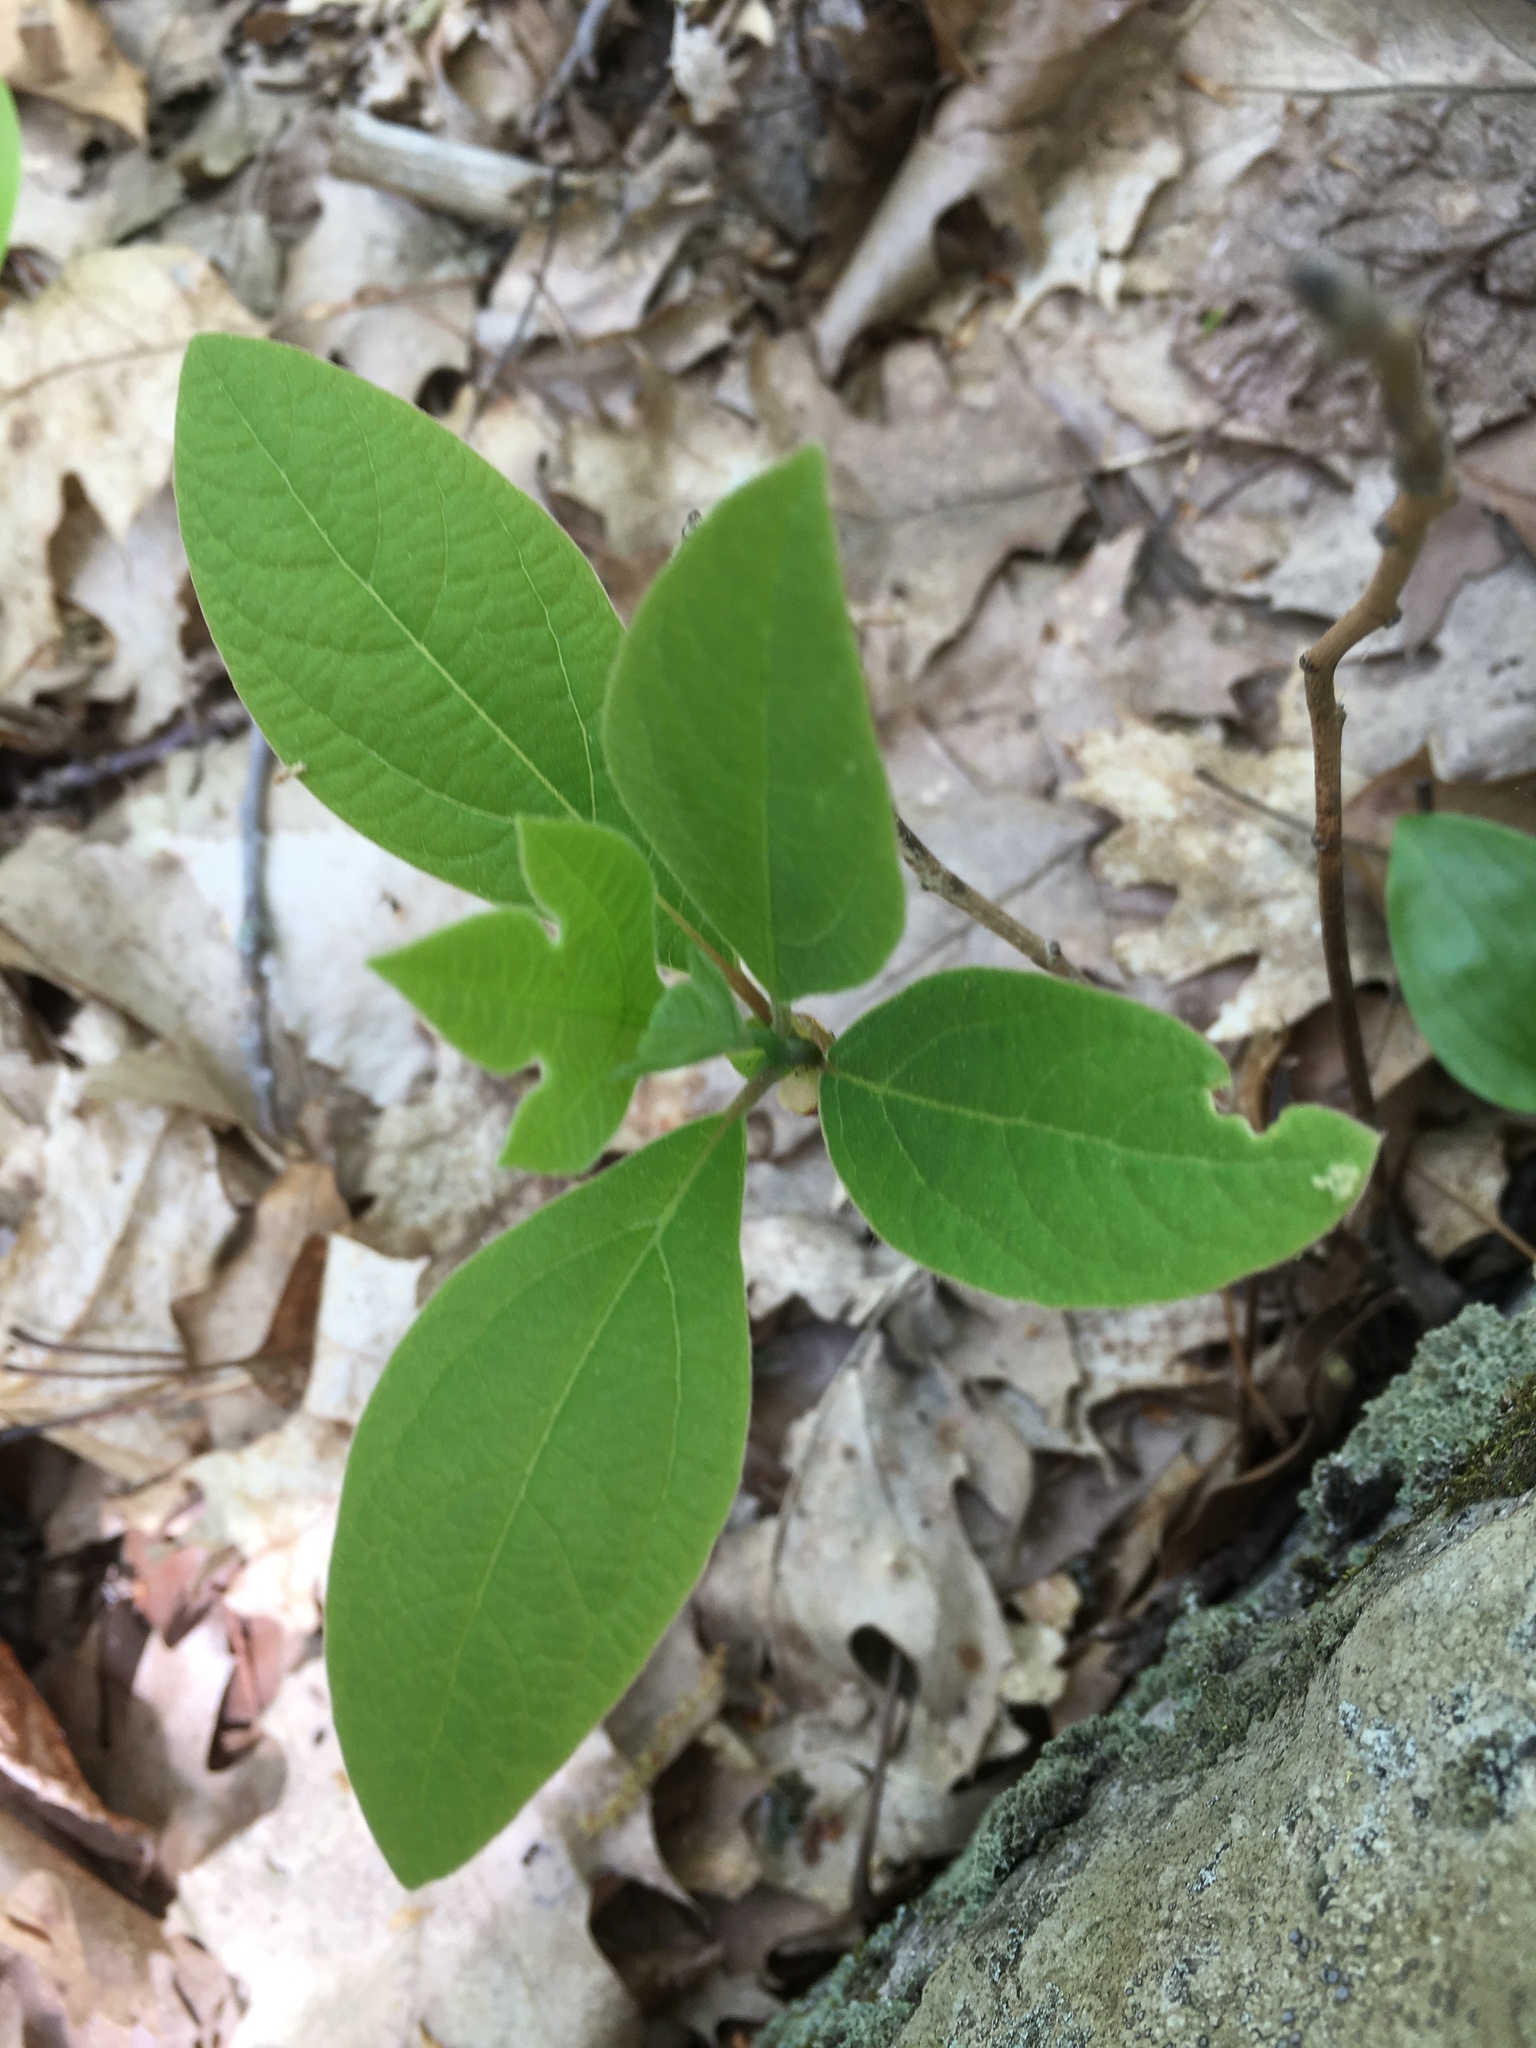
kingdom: Plantae
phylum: Tracheophyta
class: Magnoliopsida
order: Laurales
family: Lauraceae
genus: Sassafras
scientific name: Sassafras albidum
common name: Sassafras
